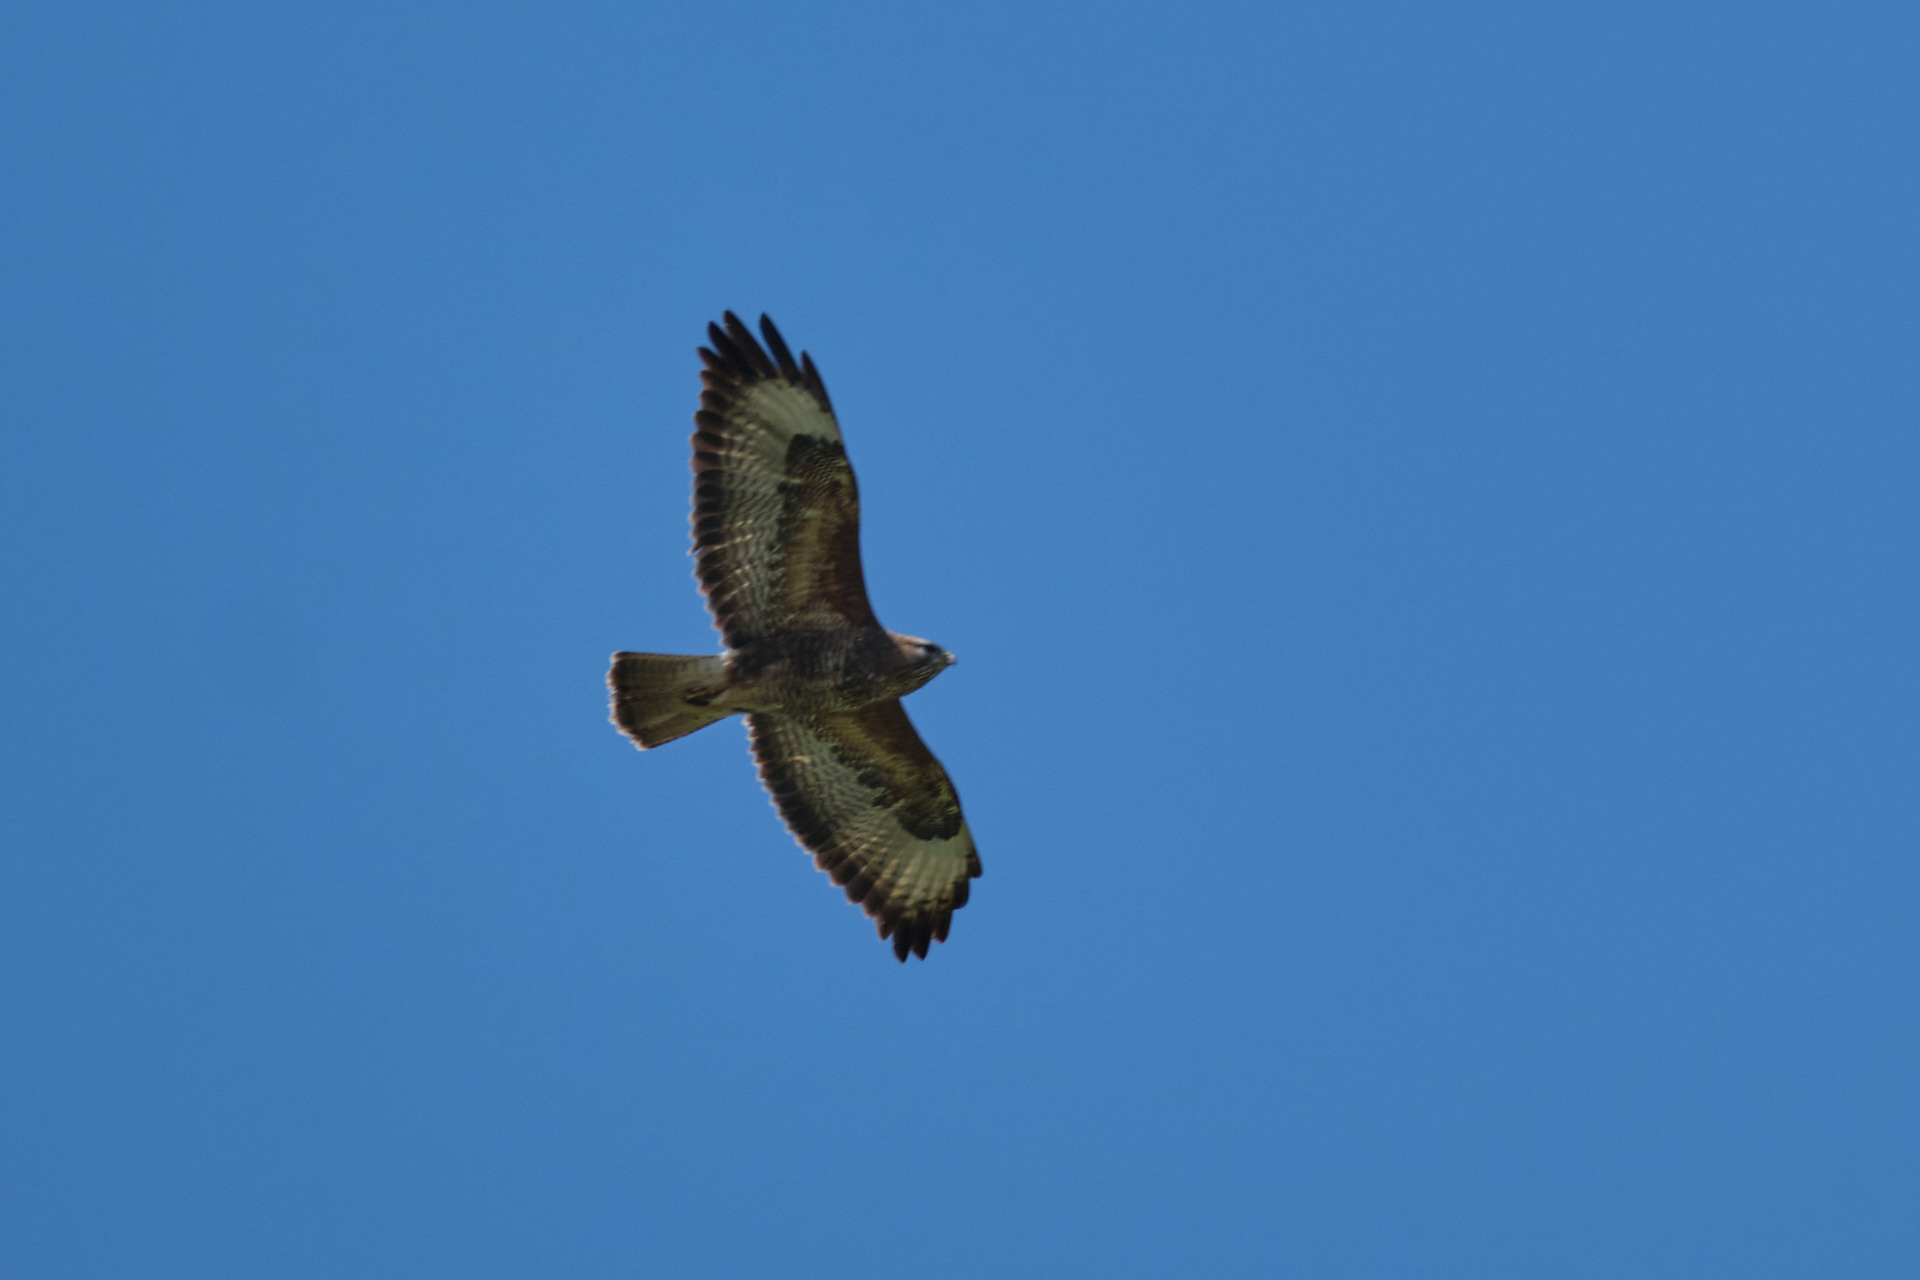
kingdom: Animalia
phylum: Chordata
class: Aves
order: Accipitriformes
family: Accipitridae
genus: Buteo
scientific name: Buteo buteo
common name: Common buzzard
